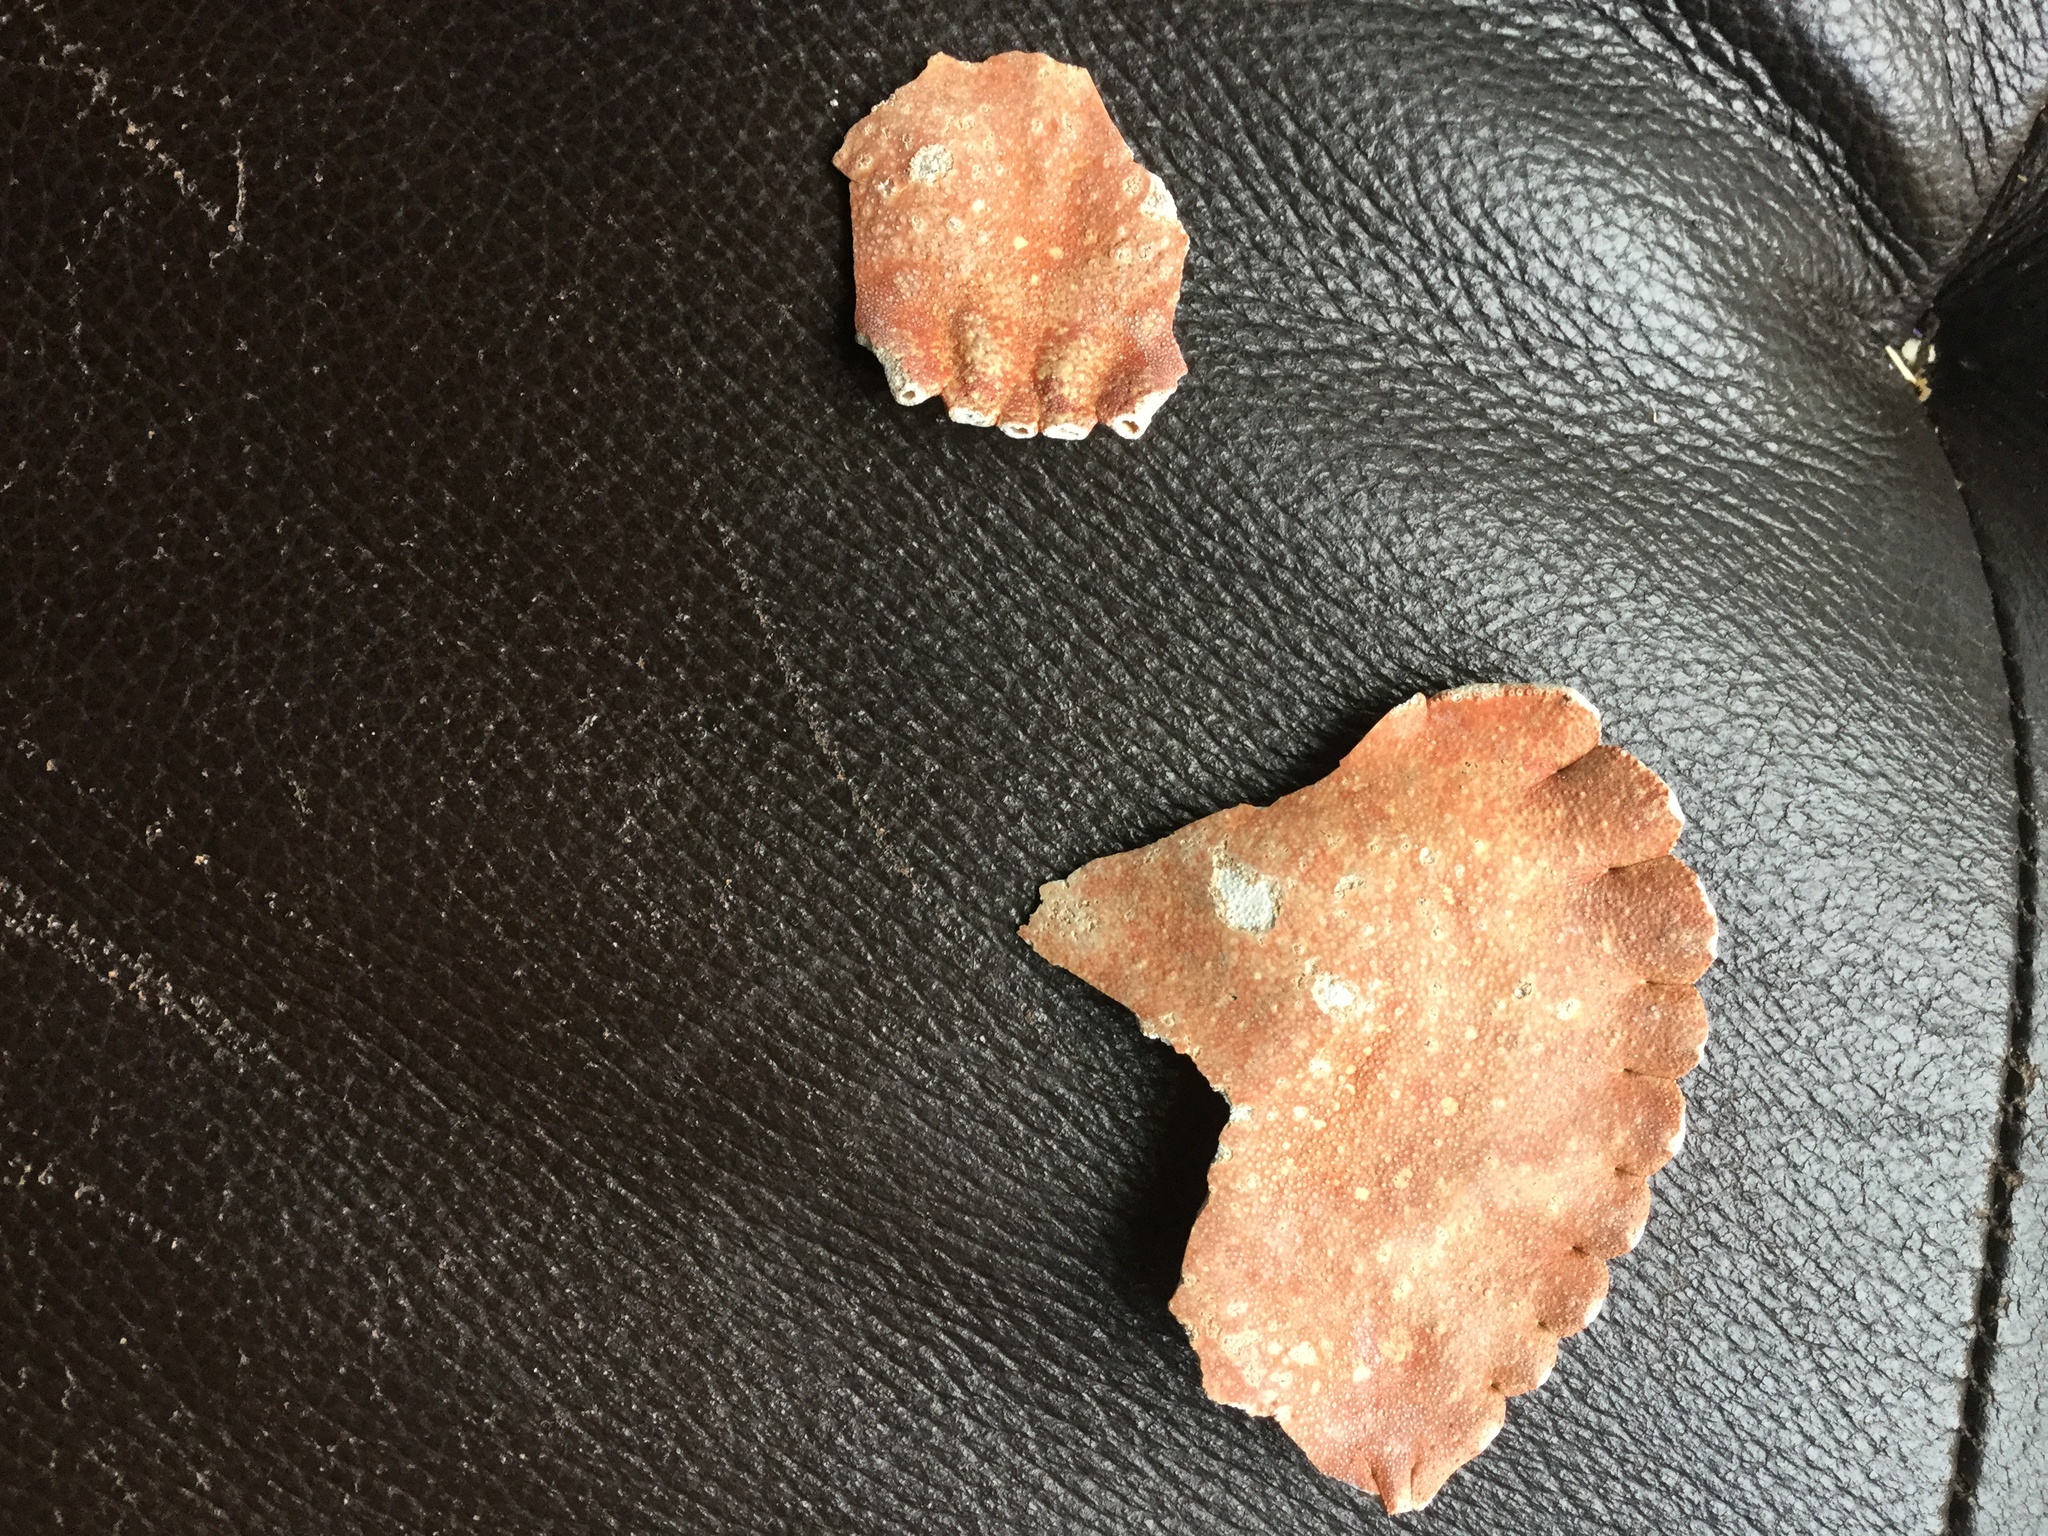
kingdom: Animalia
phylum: Arthropoda
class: Malacostraca
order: Decapoda
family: Cancridae
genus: Cancer
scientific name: Cancer productus
